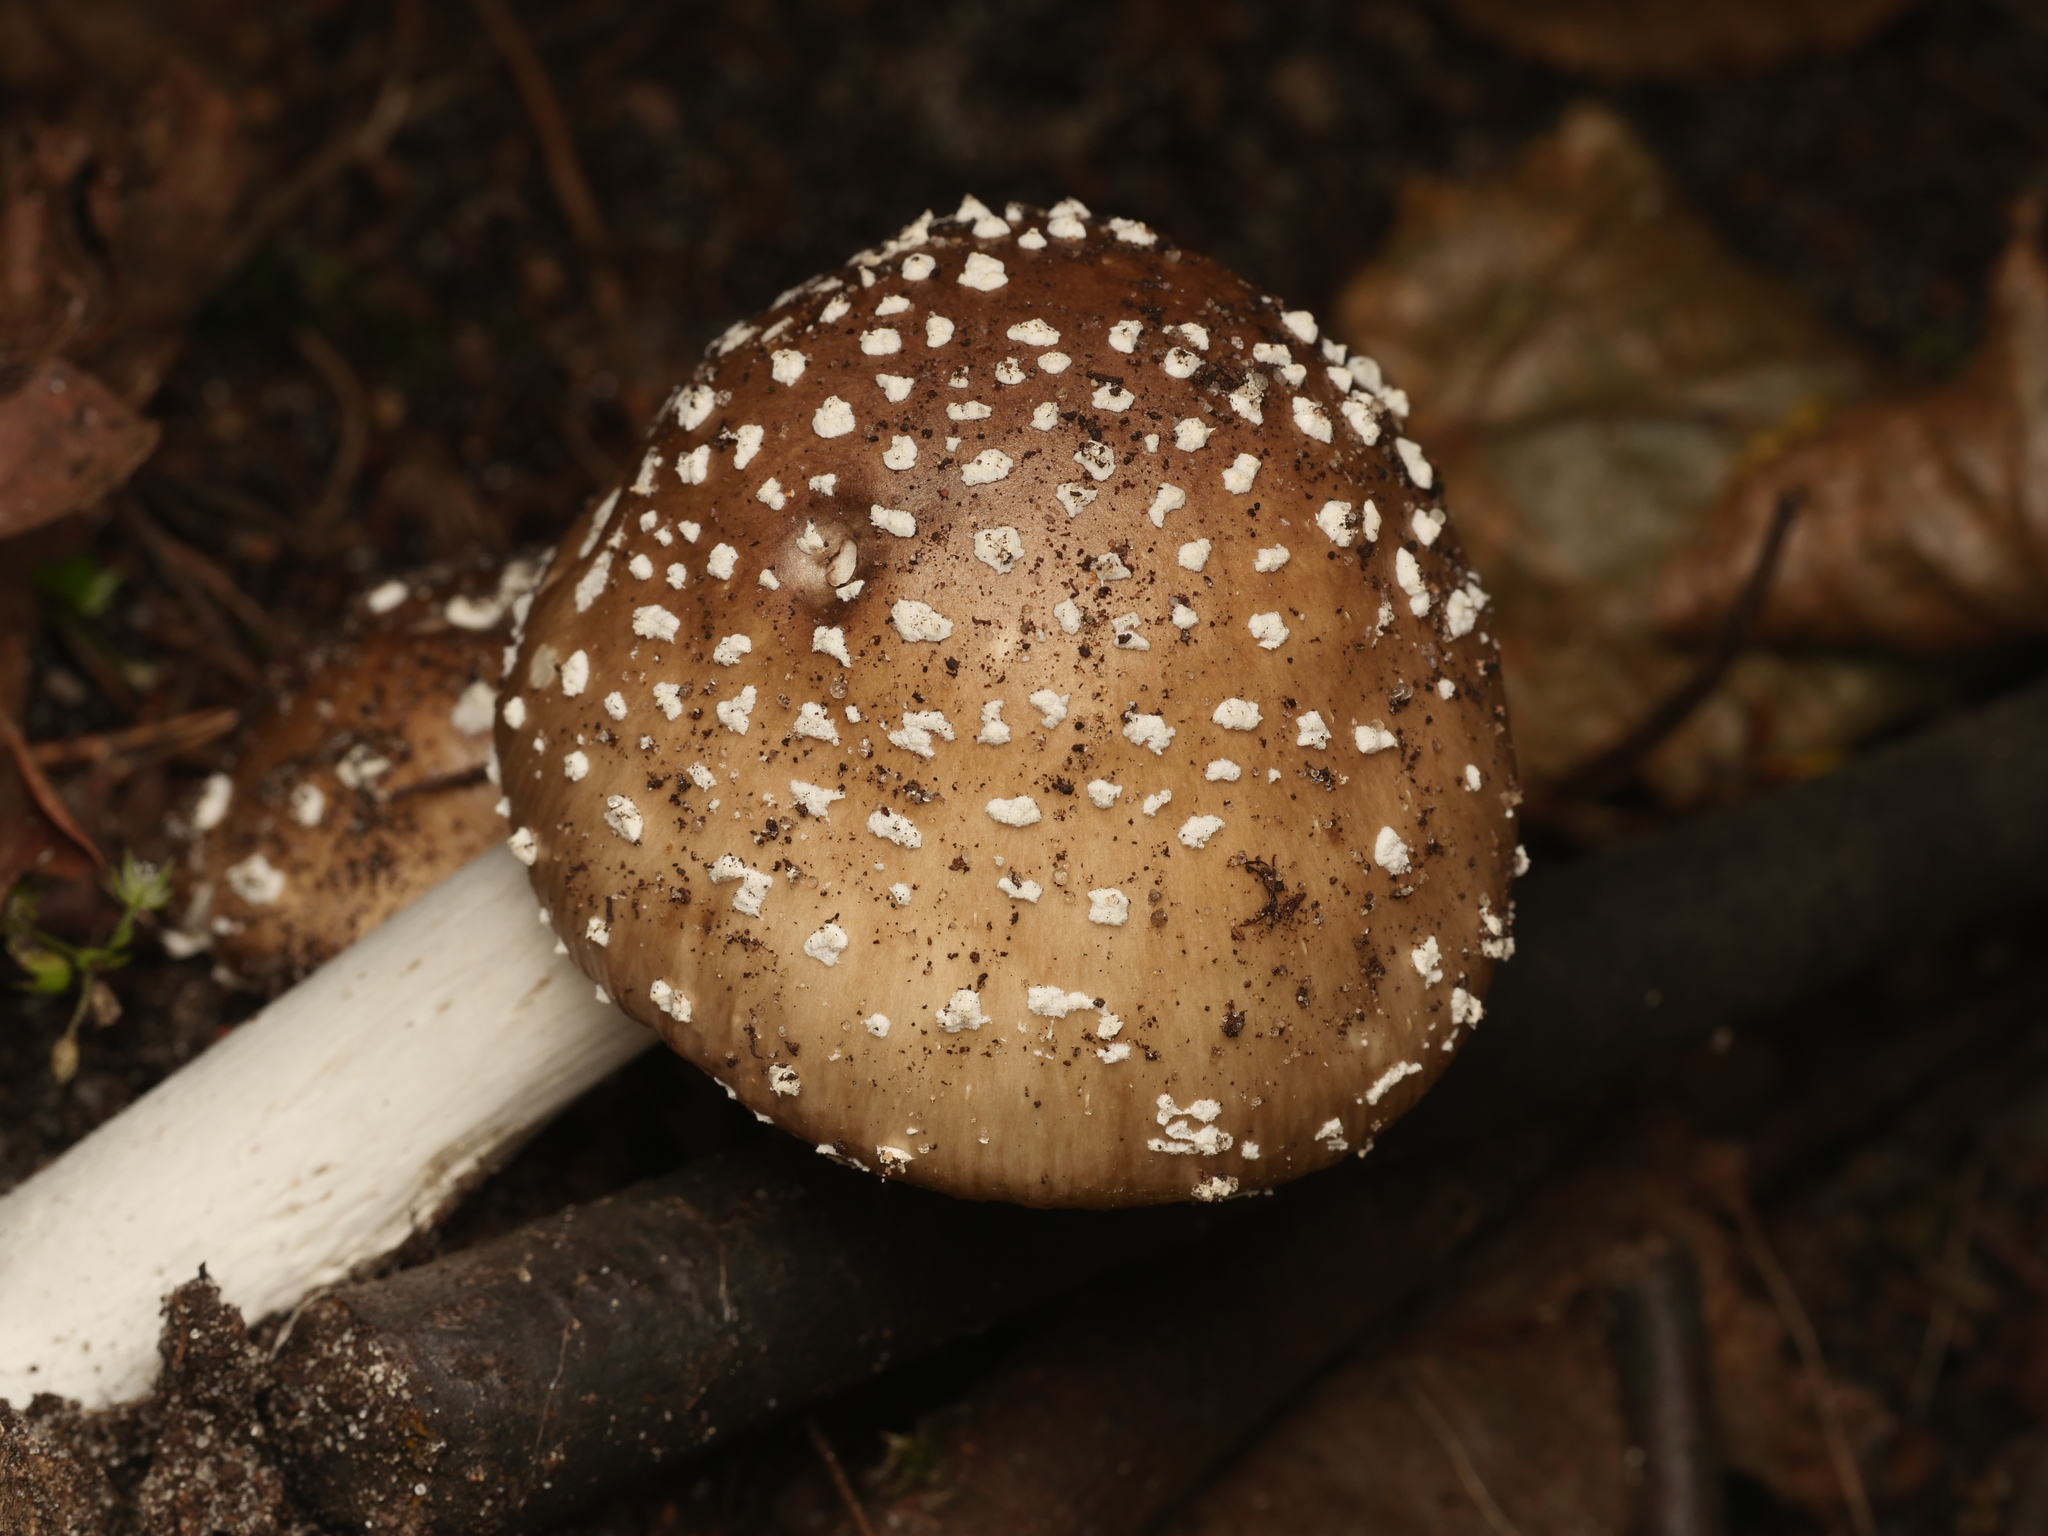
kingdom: Fungi
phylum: Basidiomycota
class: Agaricomycetes
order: Agaricales
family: Amanitaceae
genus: Amanita
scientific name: Amanita pantherina
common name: Panthercap
